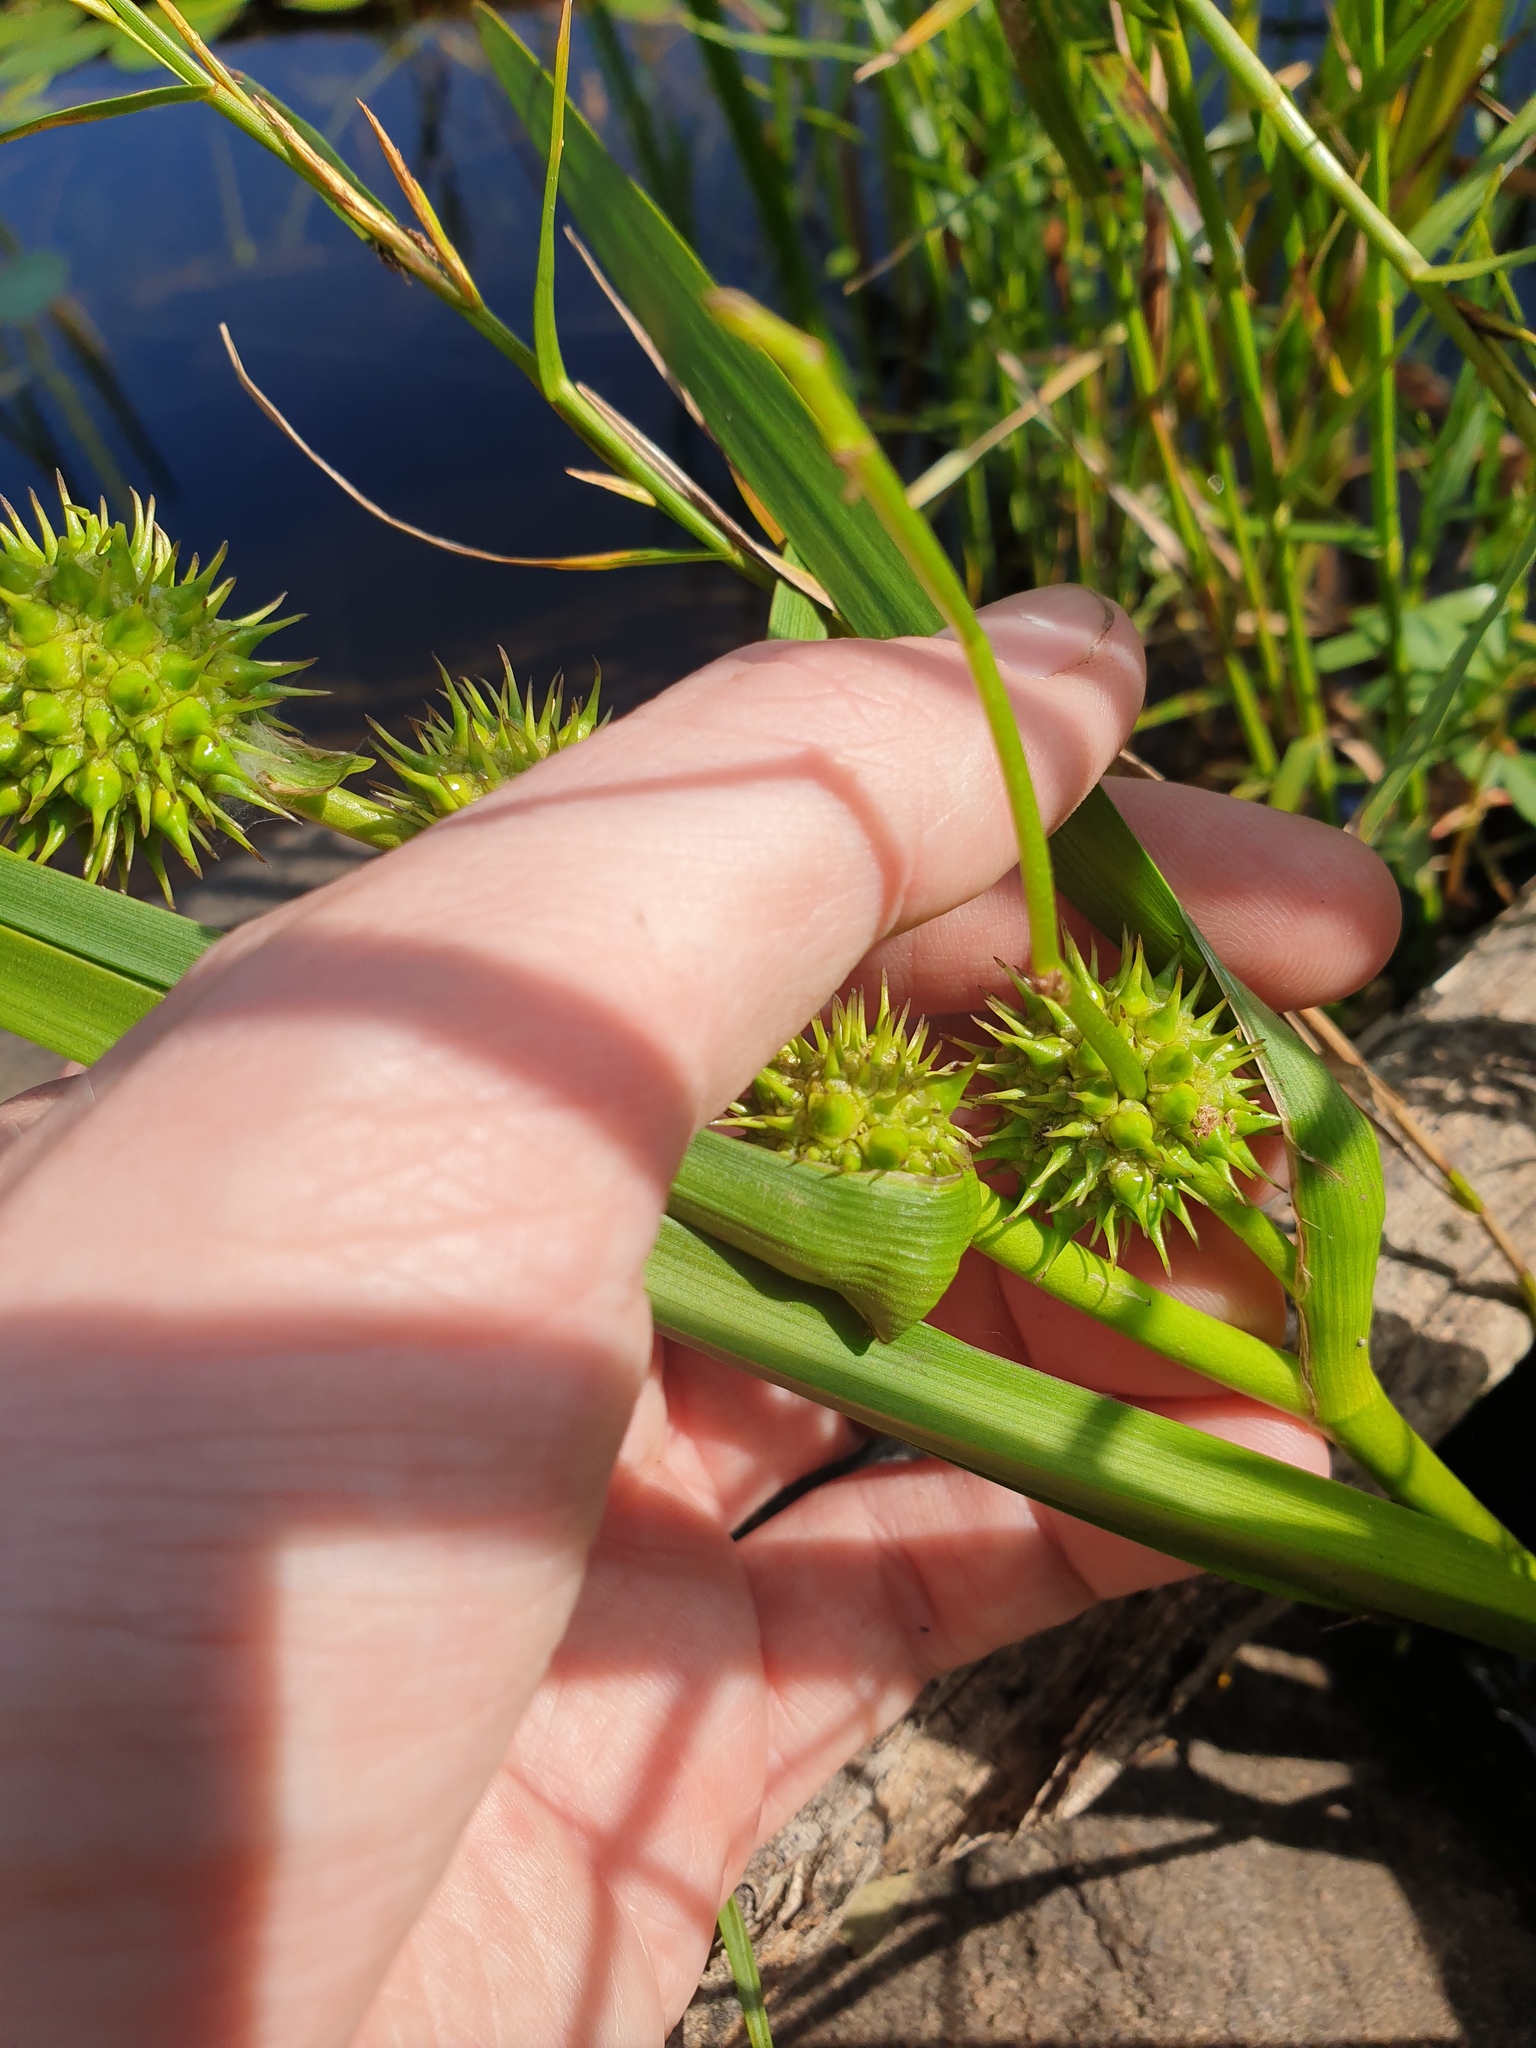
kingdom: Plantae
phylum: Tracheophyta
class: Liliopsida
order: Poales
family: Typhaceae
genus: Sparganium
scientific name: Sparganium americanum
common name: American burreed
